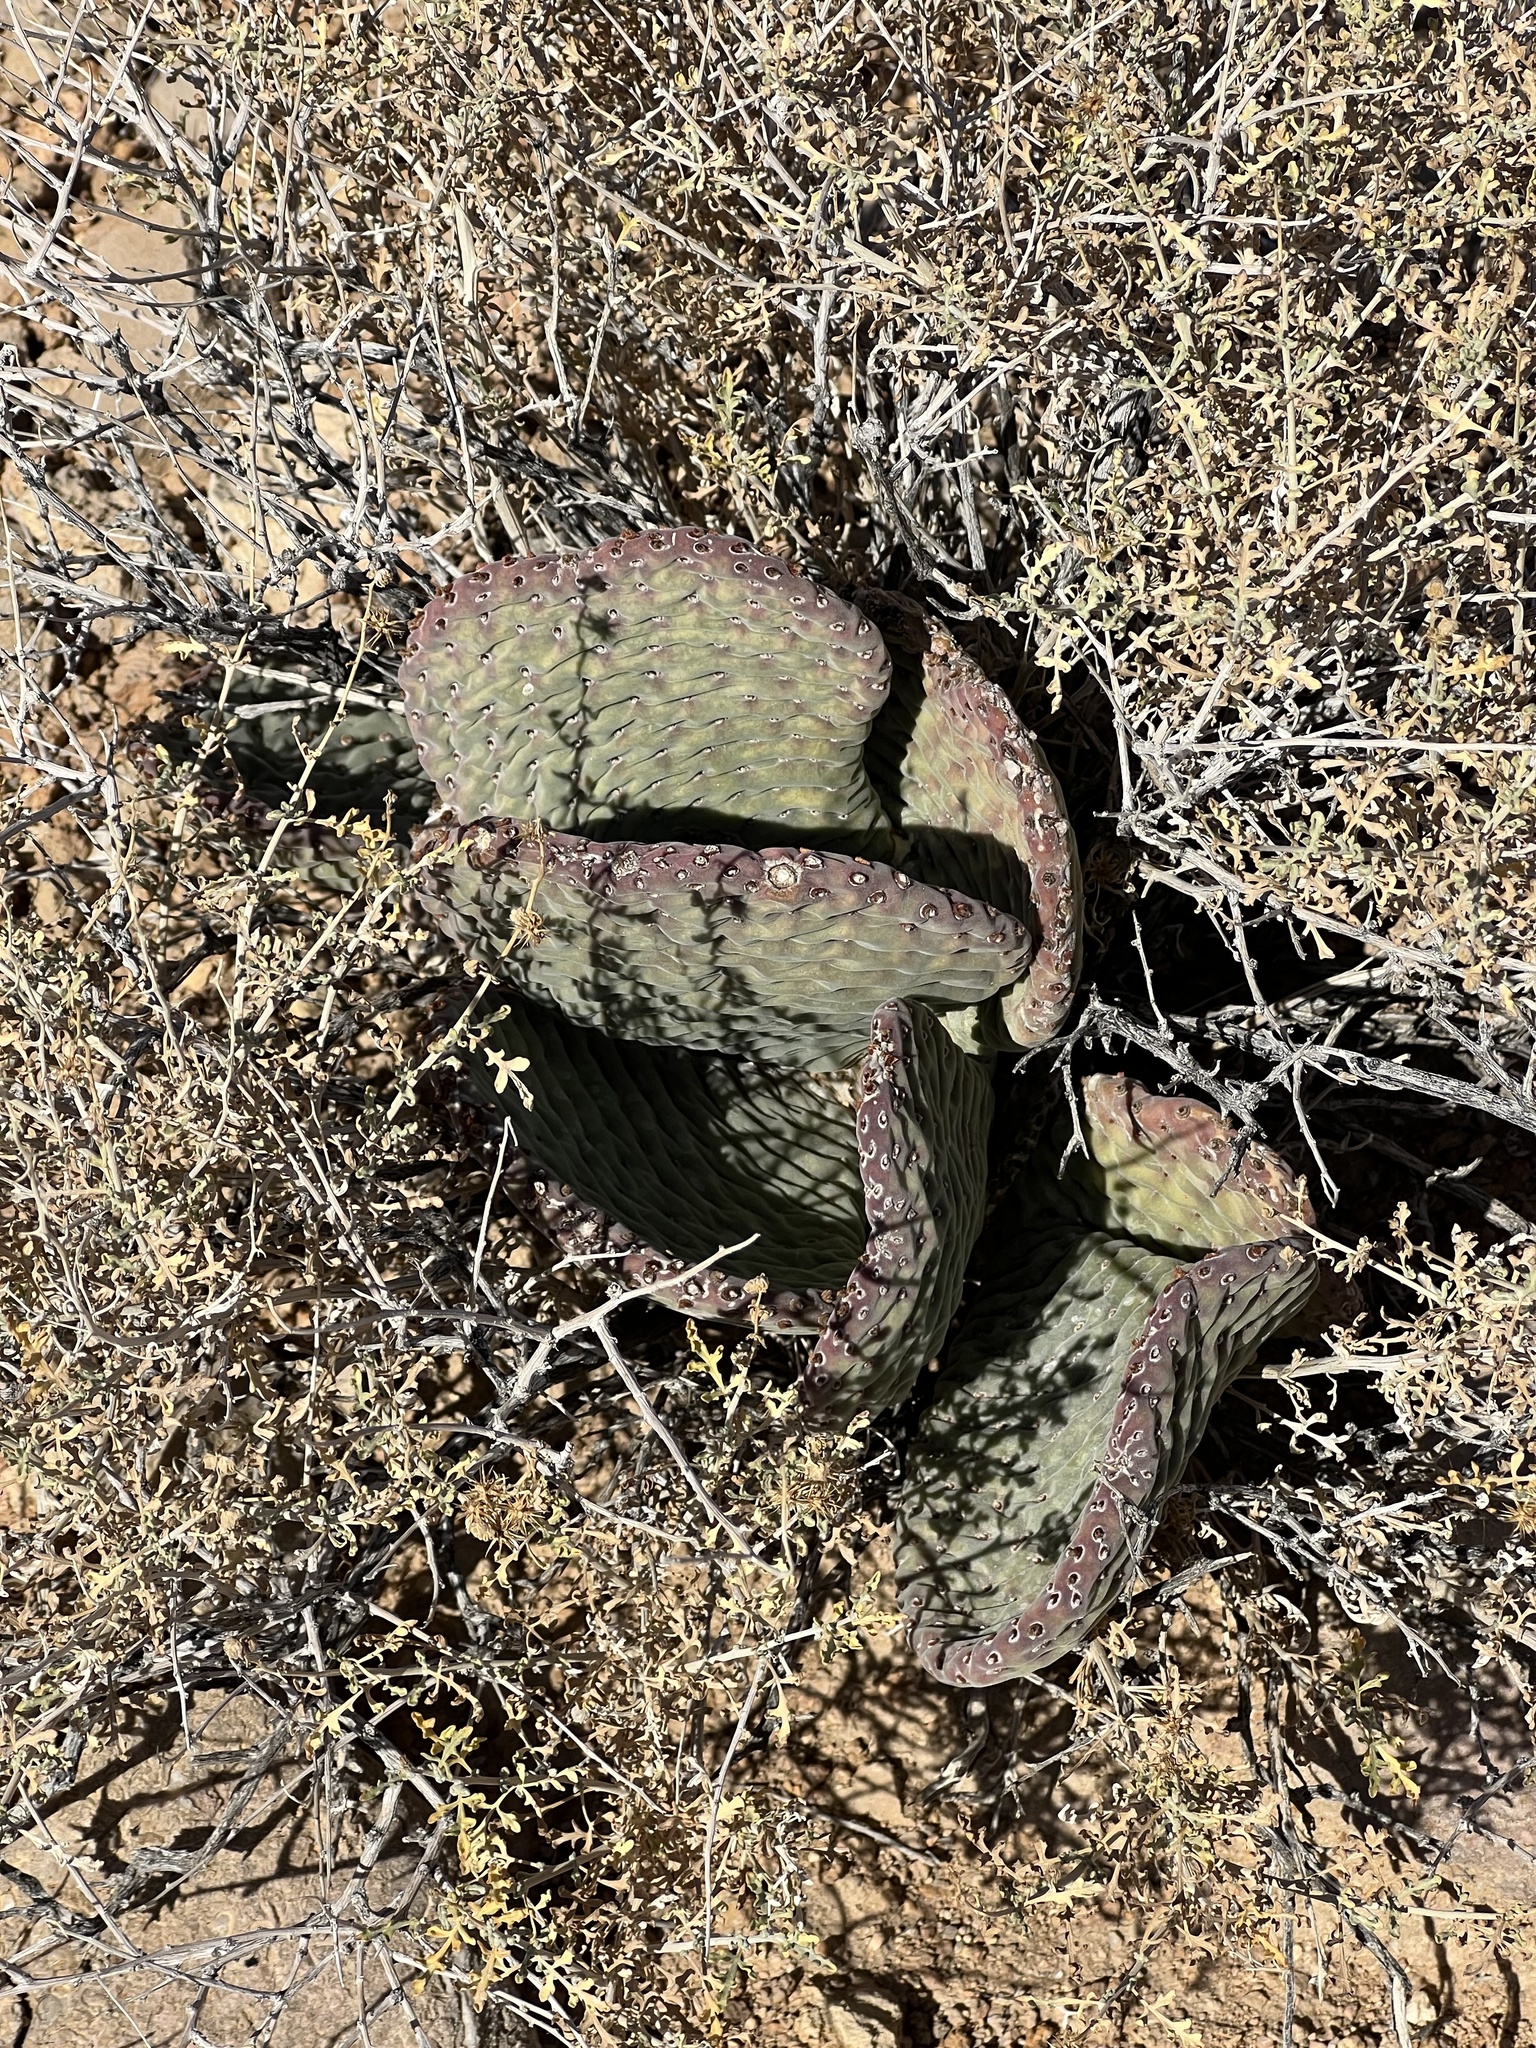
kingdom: Plantae
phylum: Tracheophyta
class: Magnoliopsida
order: Caryophyllales
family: Cactaceae
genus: Opuntia
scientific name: Opuntia basilaris
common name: Beavertail prickly-pear
